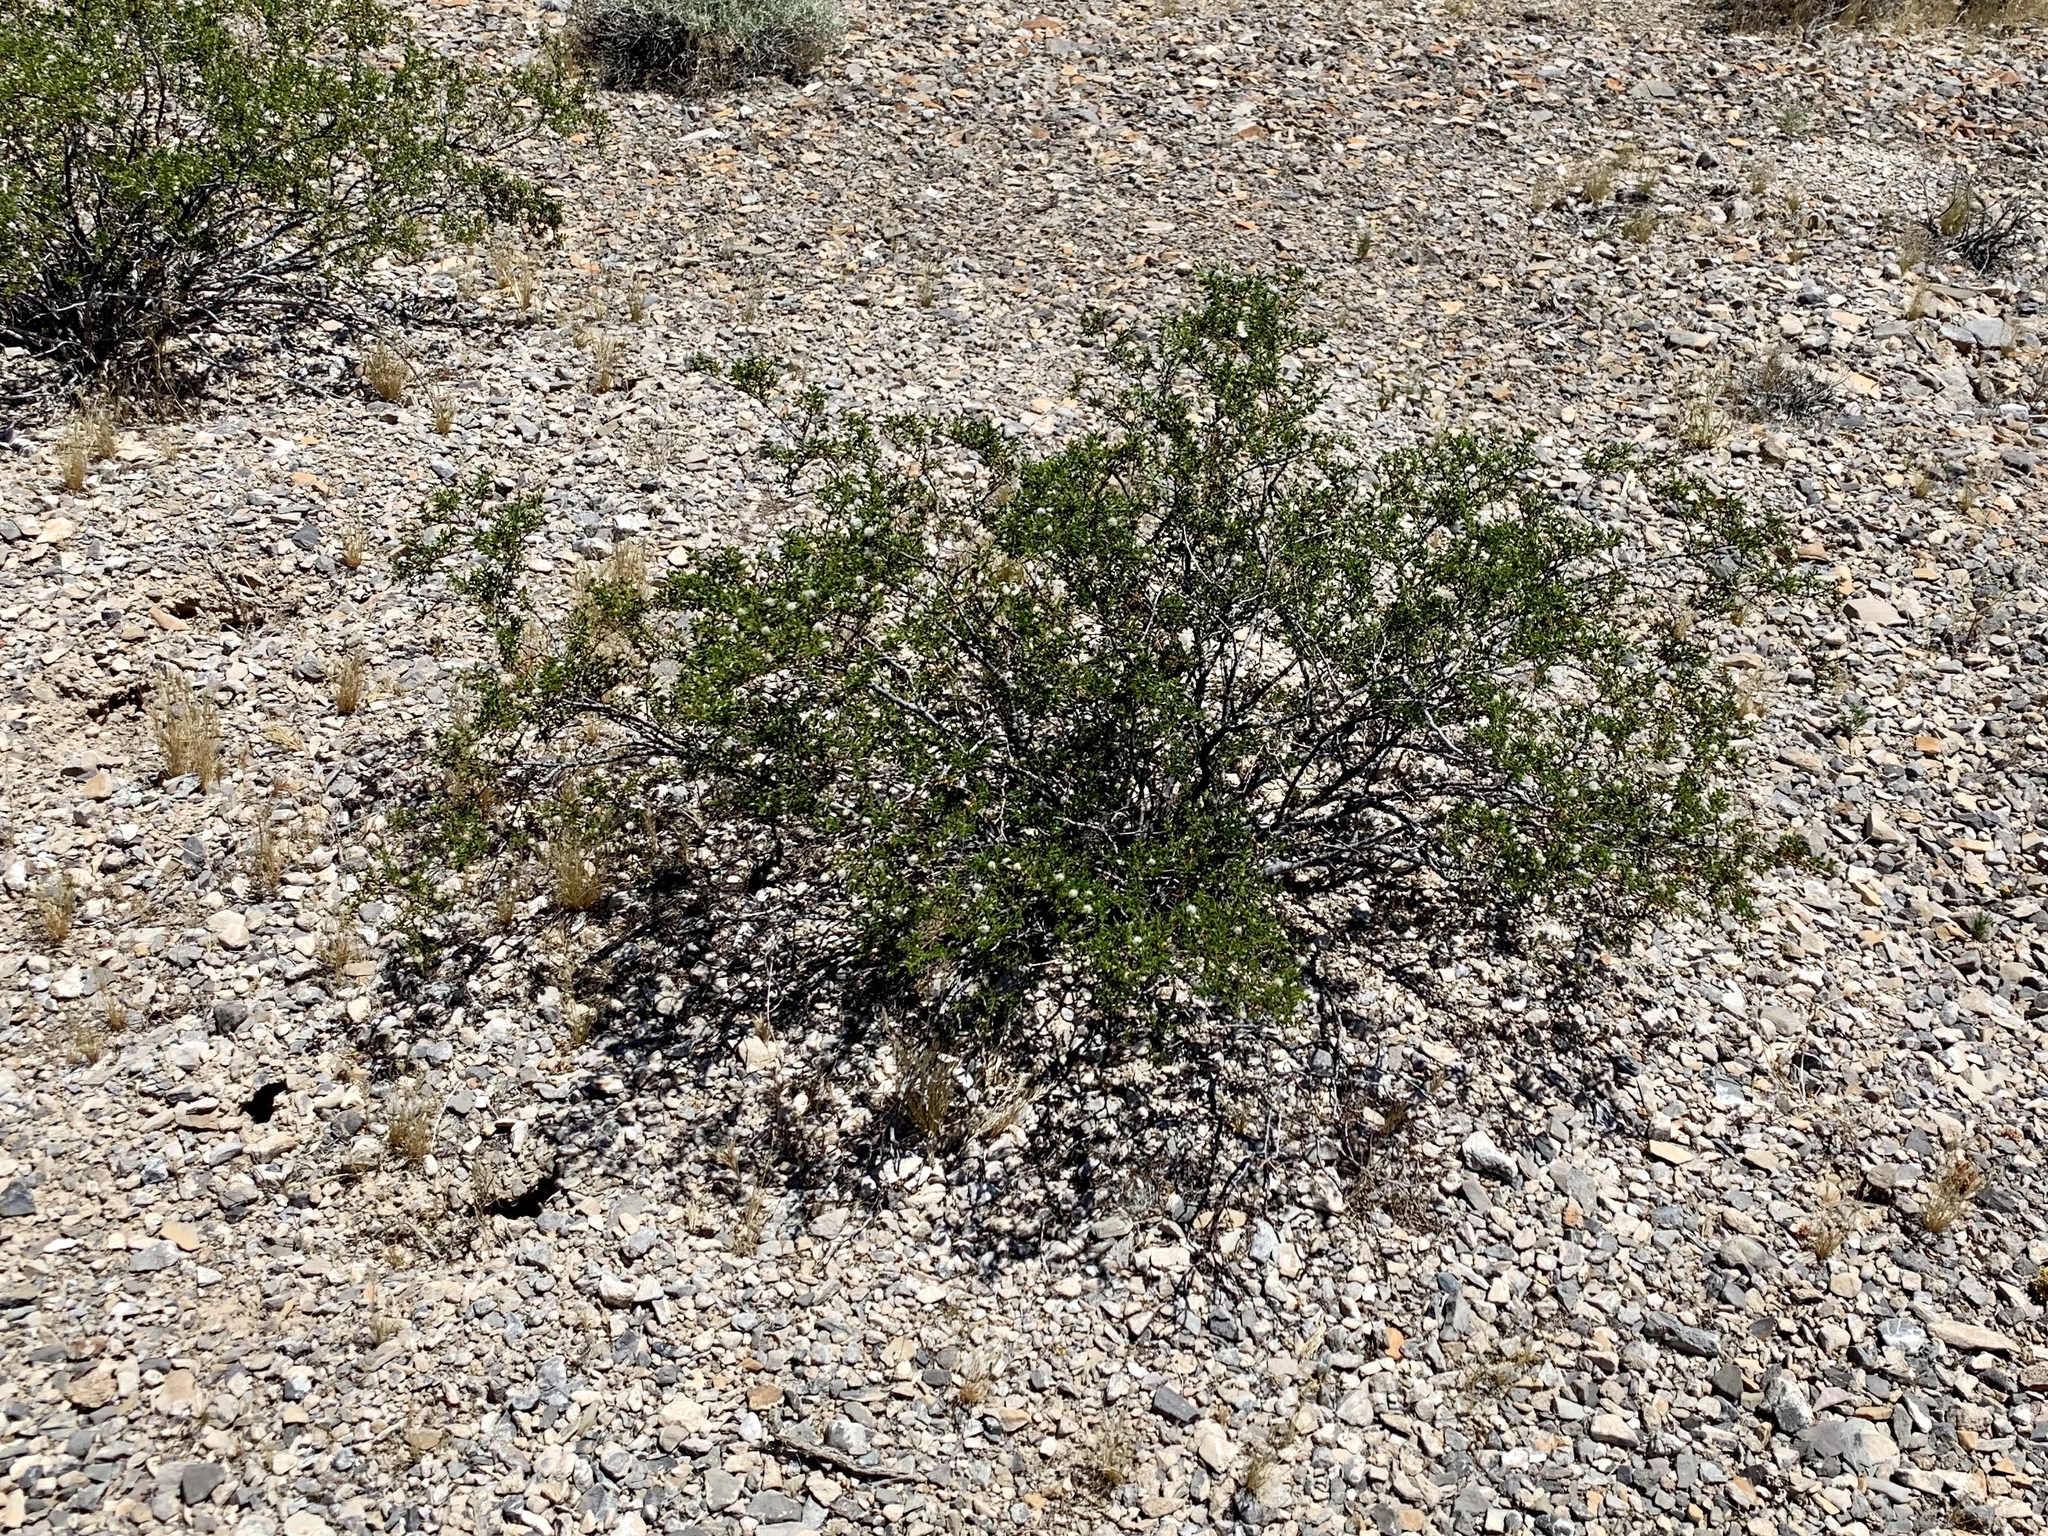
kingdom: Plantae
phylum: Tracheophyta
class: Magnoliopsida
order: Zygophyllales
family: Zygophyllaceae
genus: Larrea
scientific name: Larrea tridentata
